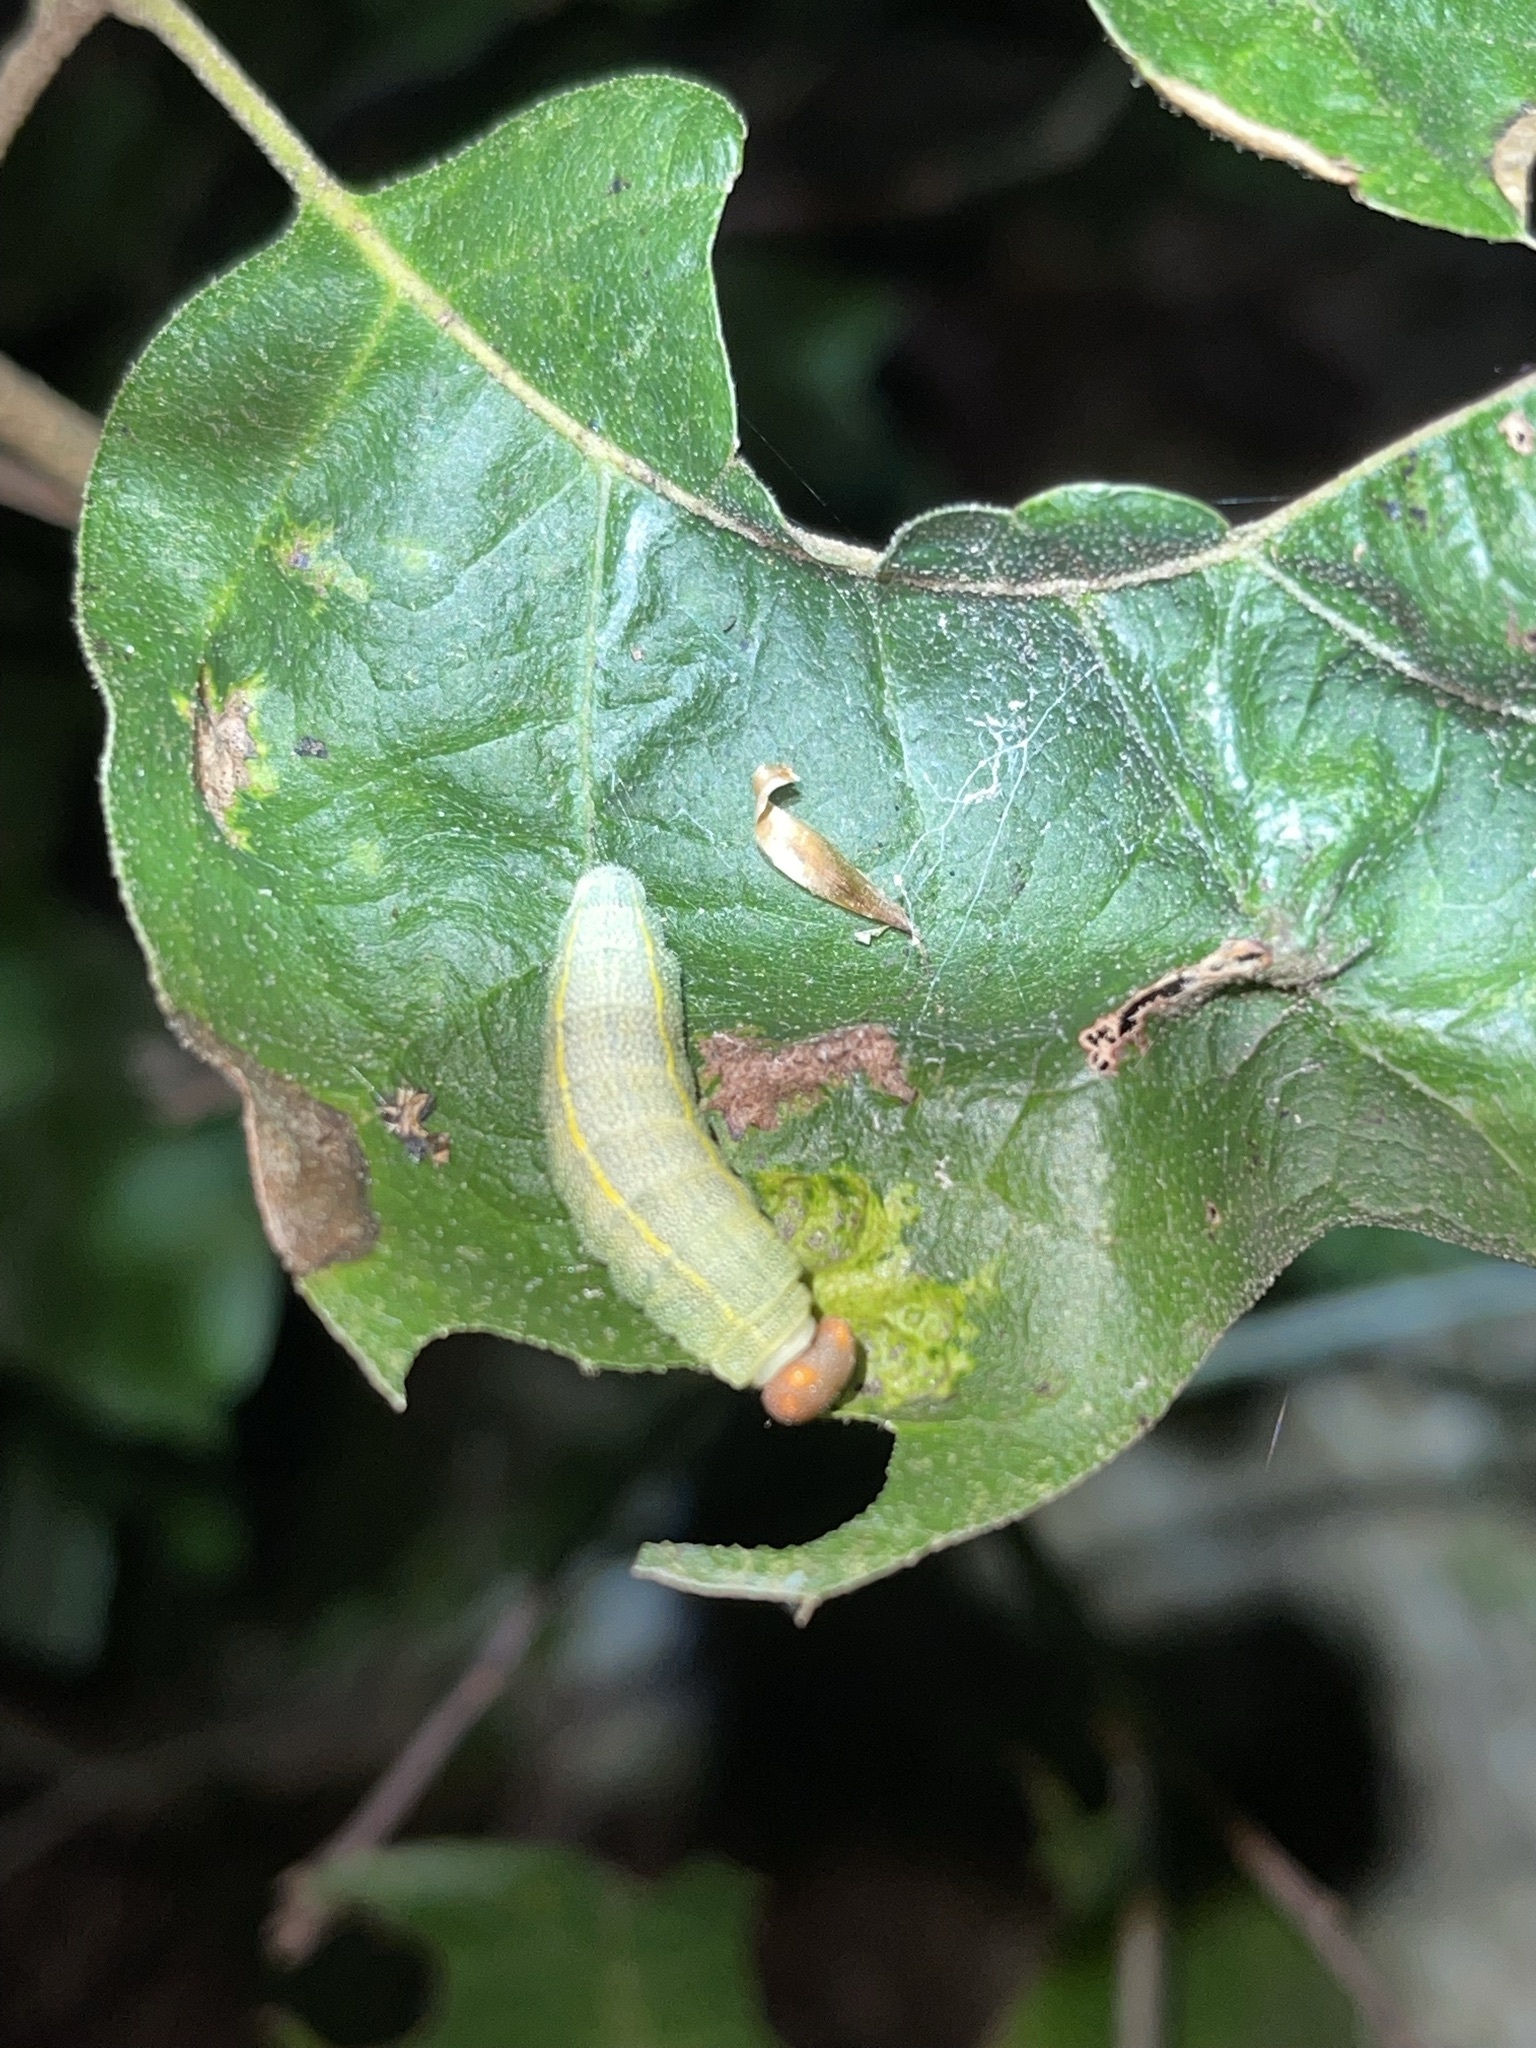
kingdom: Animalia
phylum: Arthropoda
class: Insecta
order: Lepidoptera
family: Hesperiidae
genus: Erynnis
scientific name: Erynnis juvenalis
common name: Juvenal's duskywing
